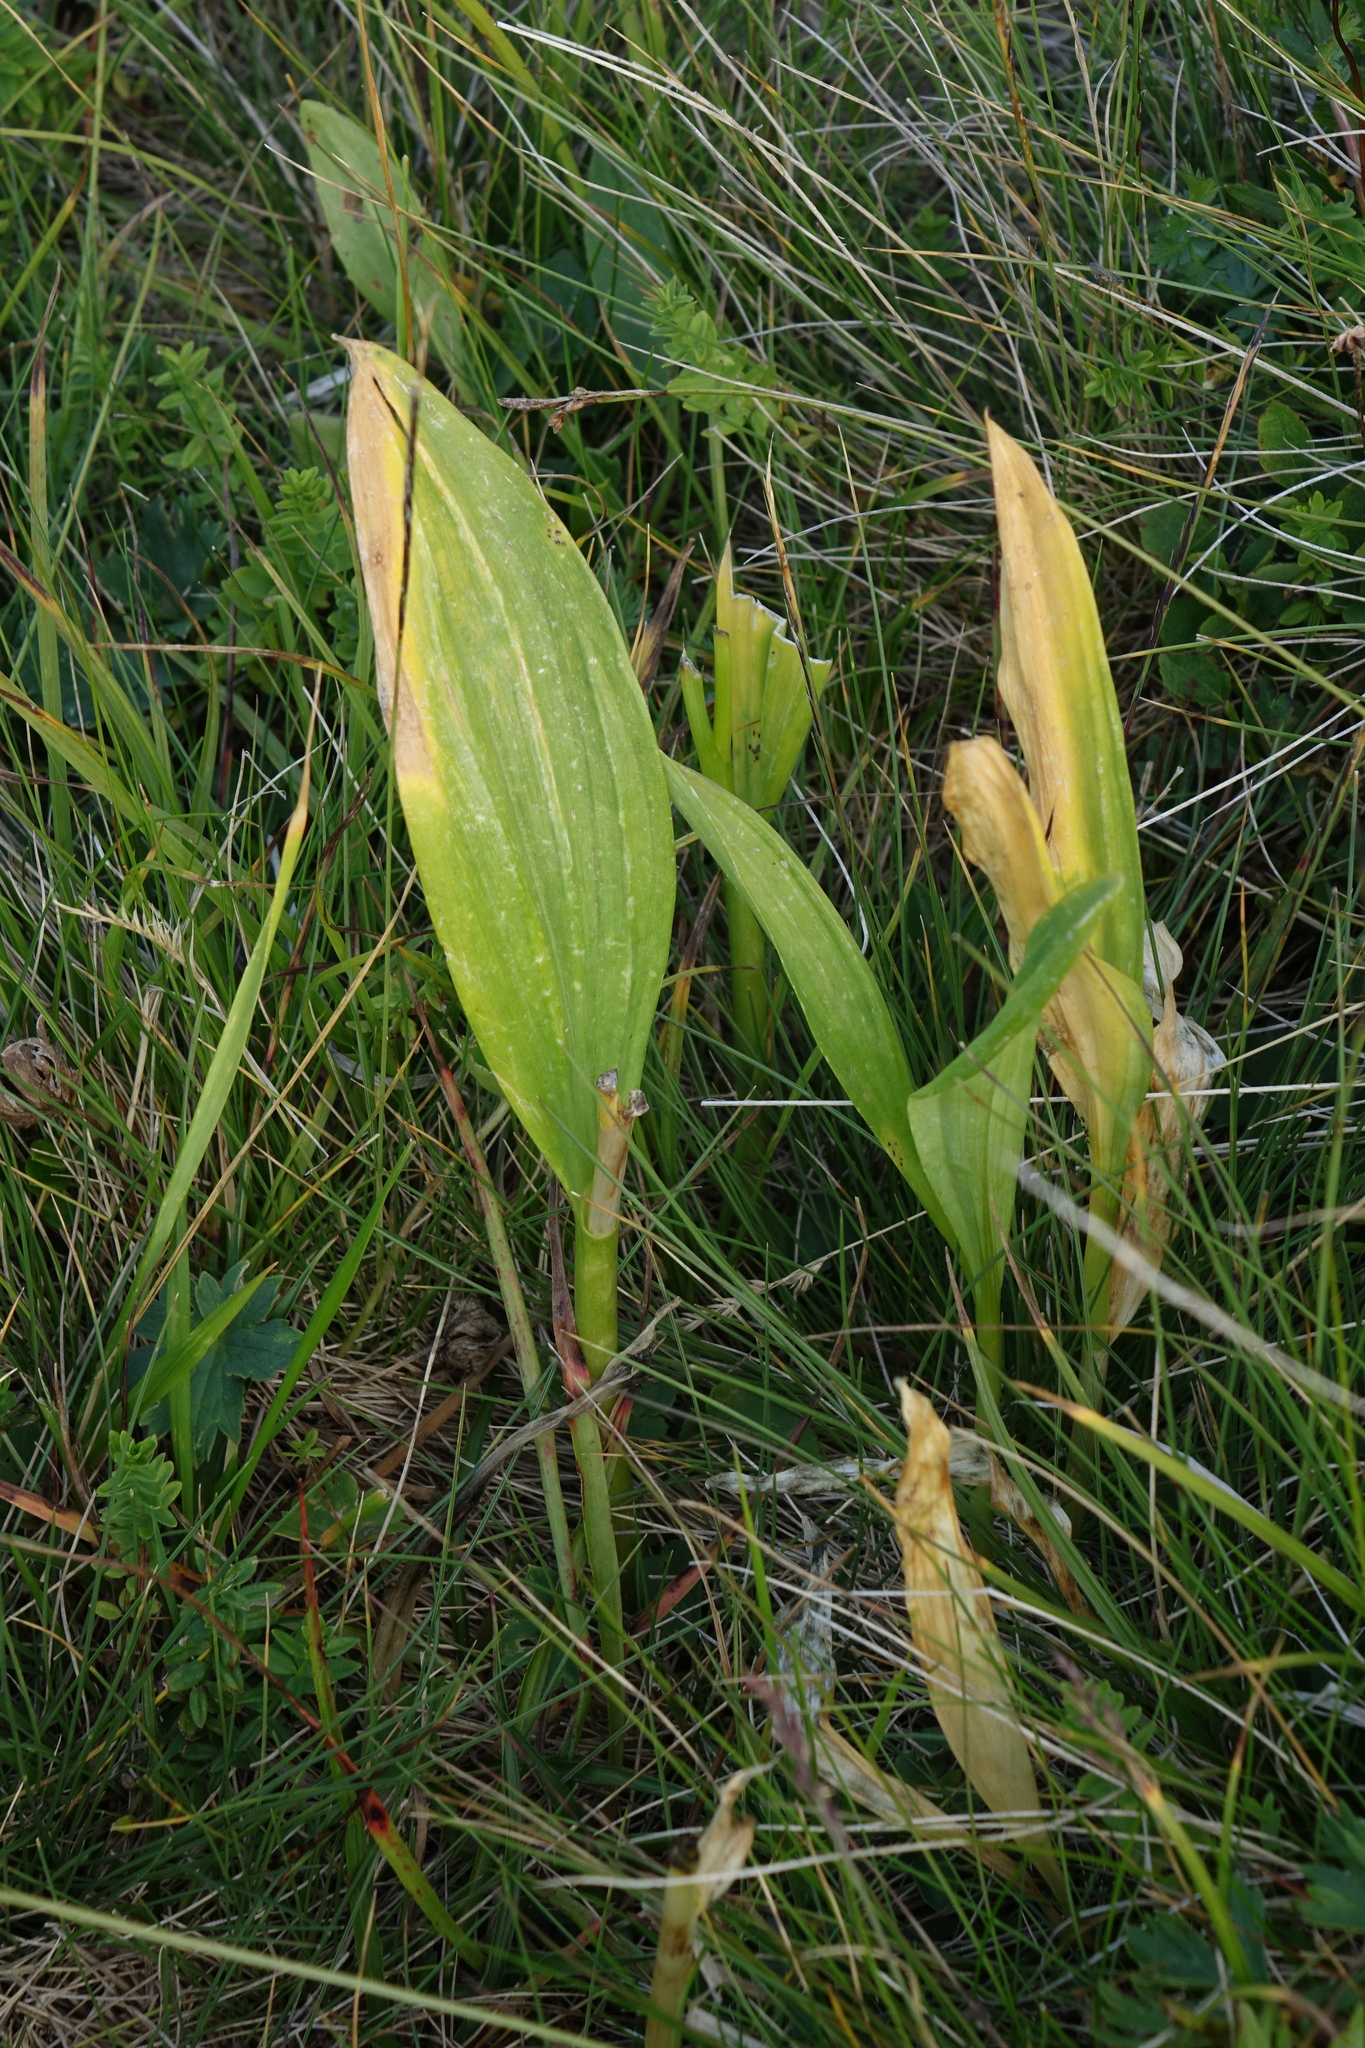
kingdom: Plantae
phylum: Tracheophyta
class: Liliopsida
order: Asparagales
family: Amaryllidaceae
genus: Allium
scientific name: Allium victorialis
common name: Alpine leek
